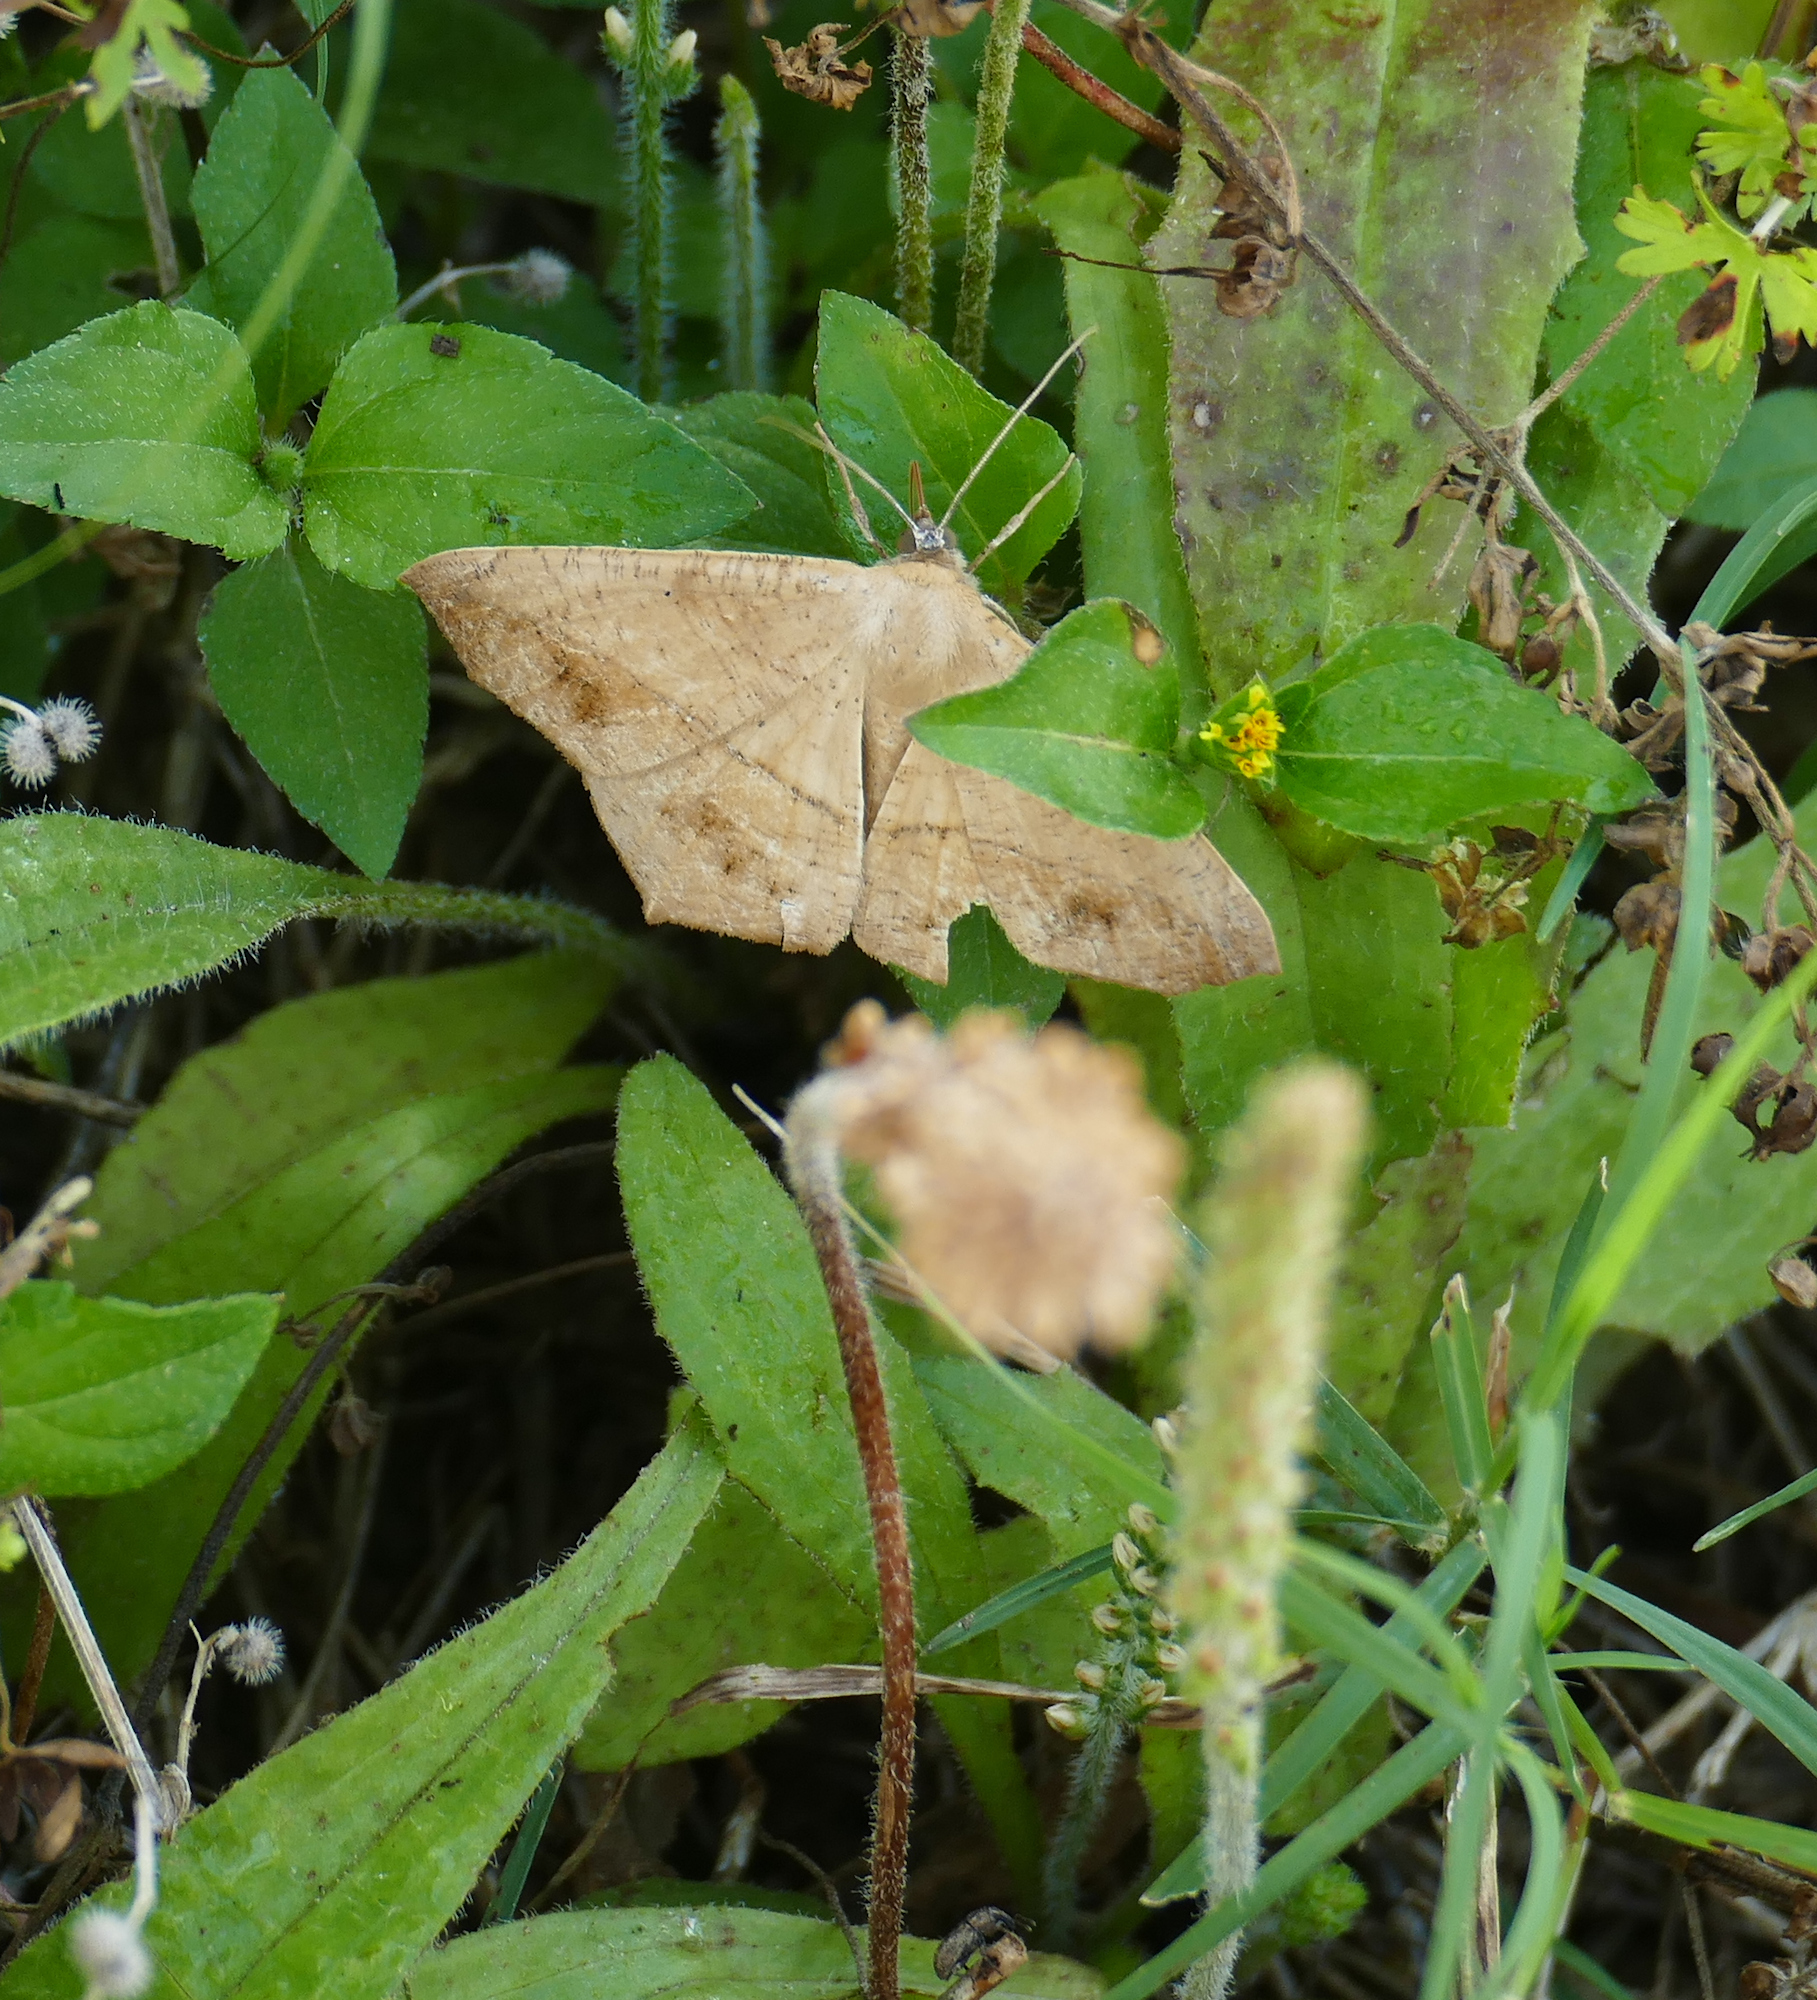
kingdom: Animalia
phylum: Arthropoda
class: Insecta
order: Lepidoptera
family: Geometridae
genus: Prochoerodes
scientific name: Prochoerodes lineola
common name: Large maple spanworm
